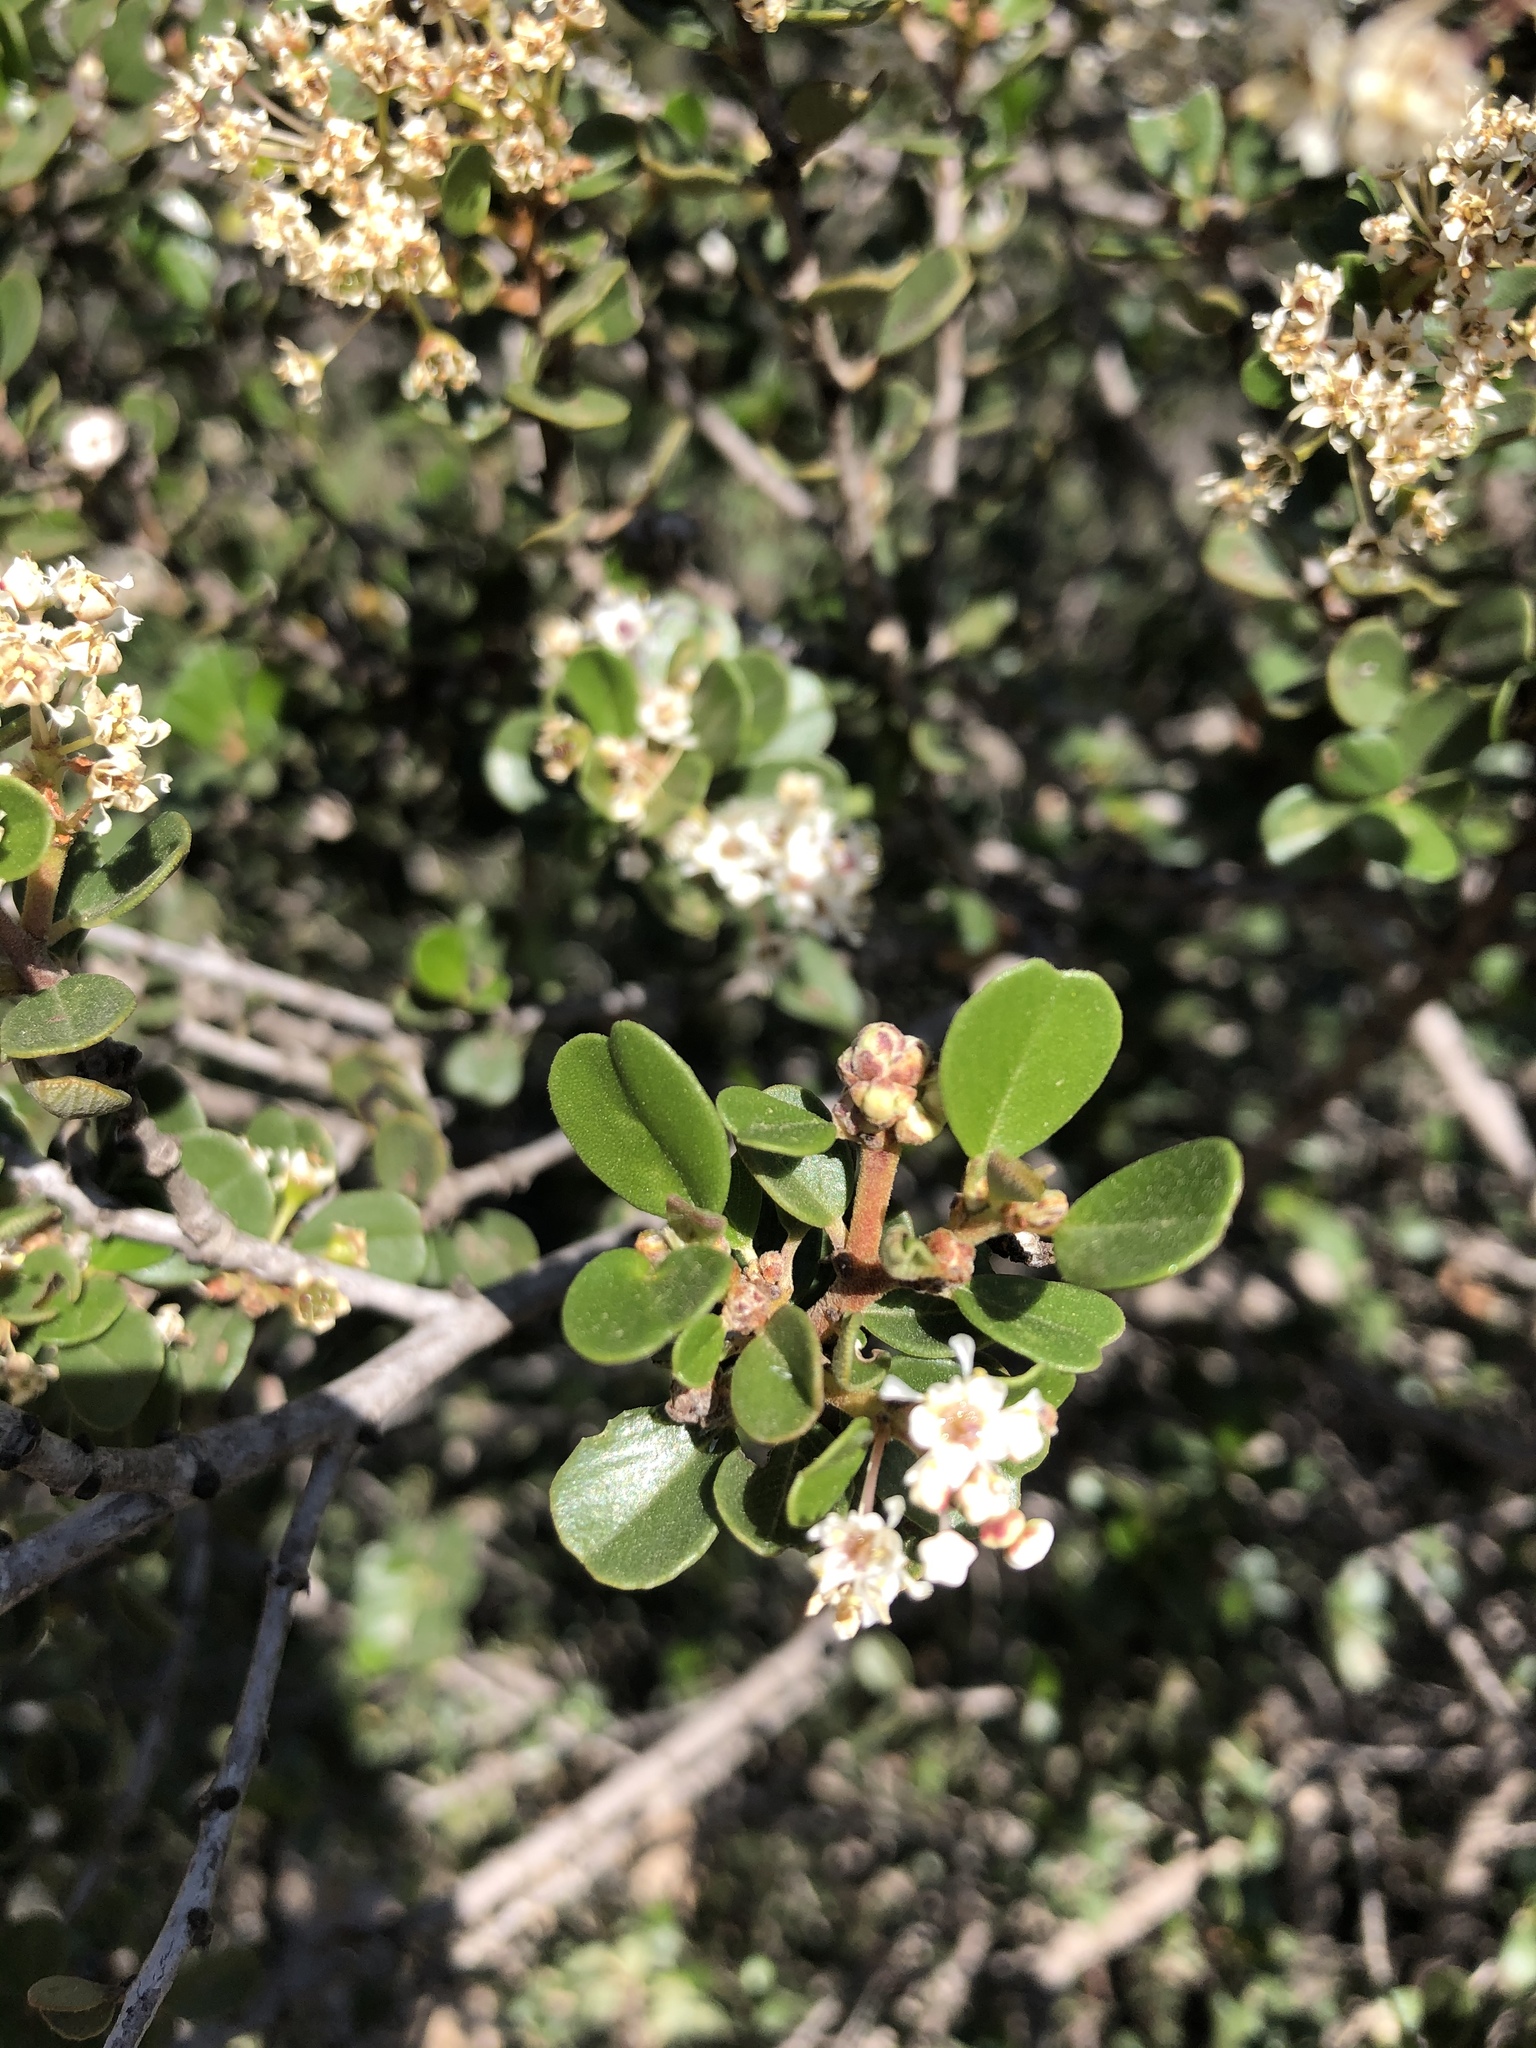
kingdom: Plantae
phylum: Tracheophyta
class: Magnoliopsida
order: Rosales
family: Rhamnaceae
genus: Ceanothus
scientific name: Ceanothus verrucosus
